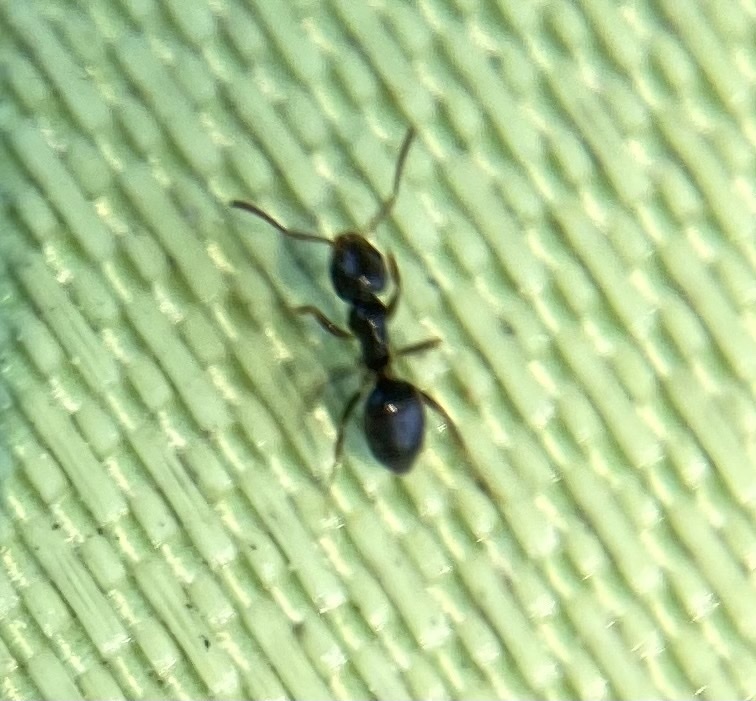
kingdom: Animalia
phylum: Arthropoda
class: Insecta
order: Hymenoptera
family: Formicidae
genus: Tapinoma
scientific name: Tapinoma sessile
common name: Odorous house ant
